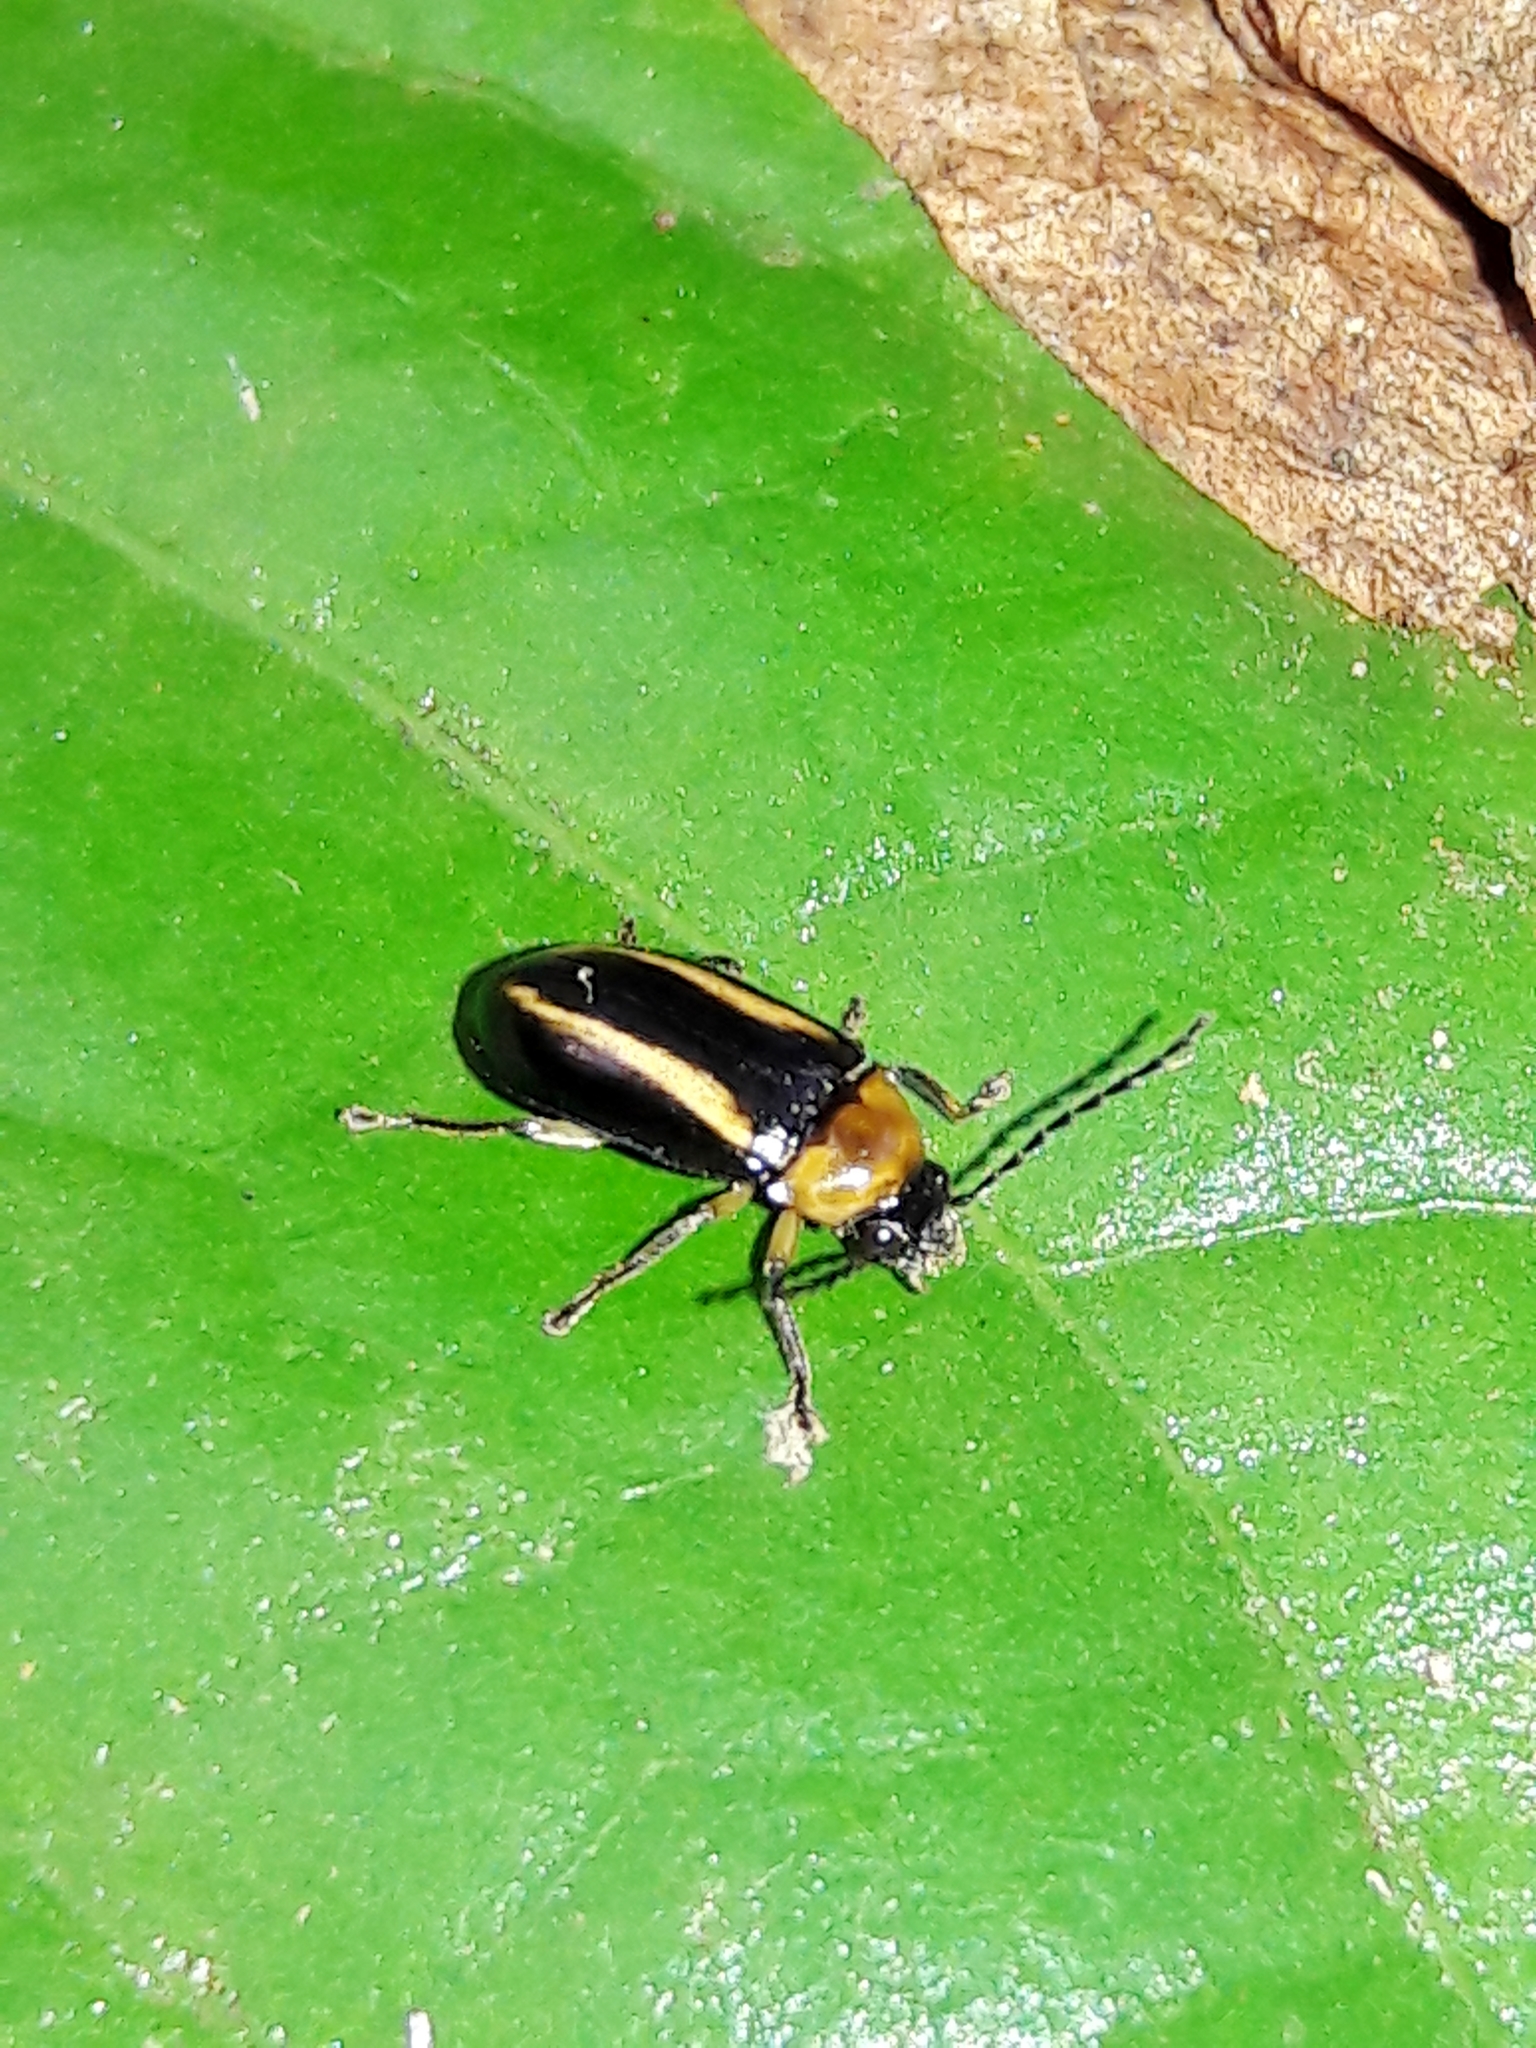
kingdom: Animalia
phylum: Arthropoda
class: Insecta
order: Coleoptera
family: Ptilodactylidae
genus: Ptilodactyla
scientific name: Ptilodactyla
